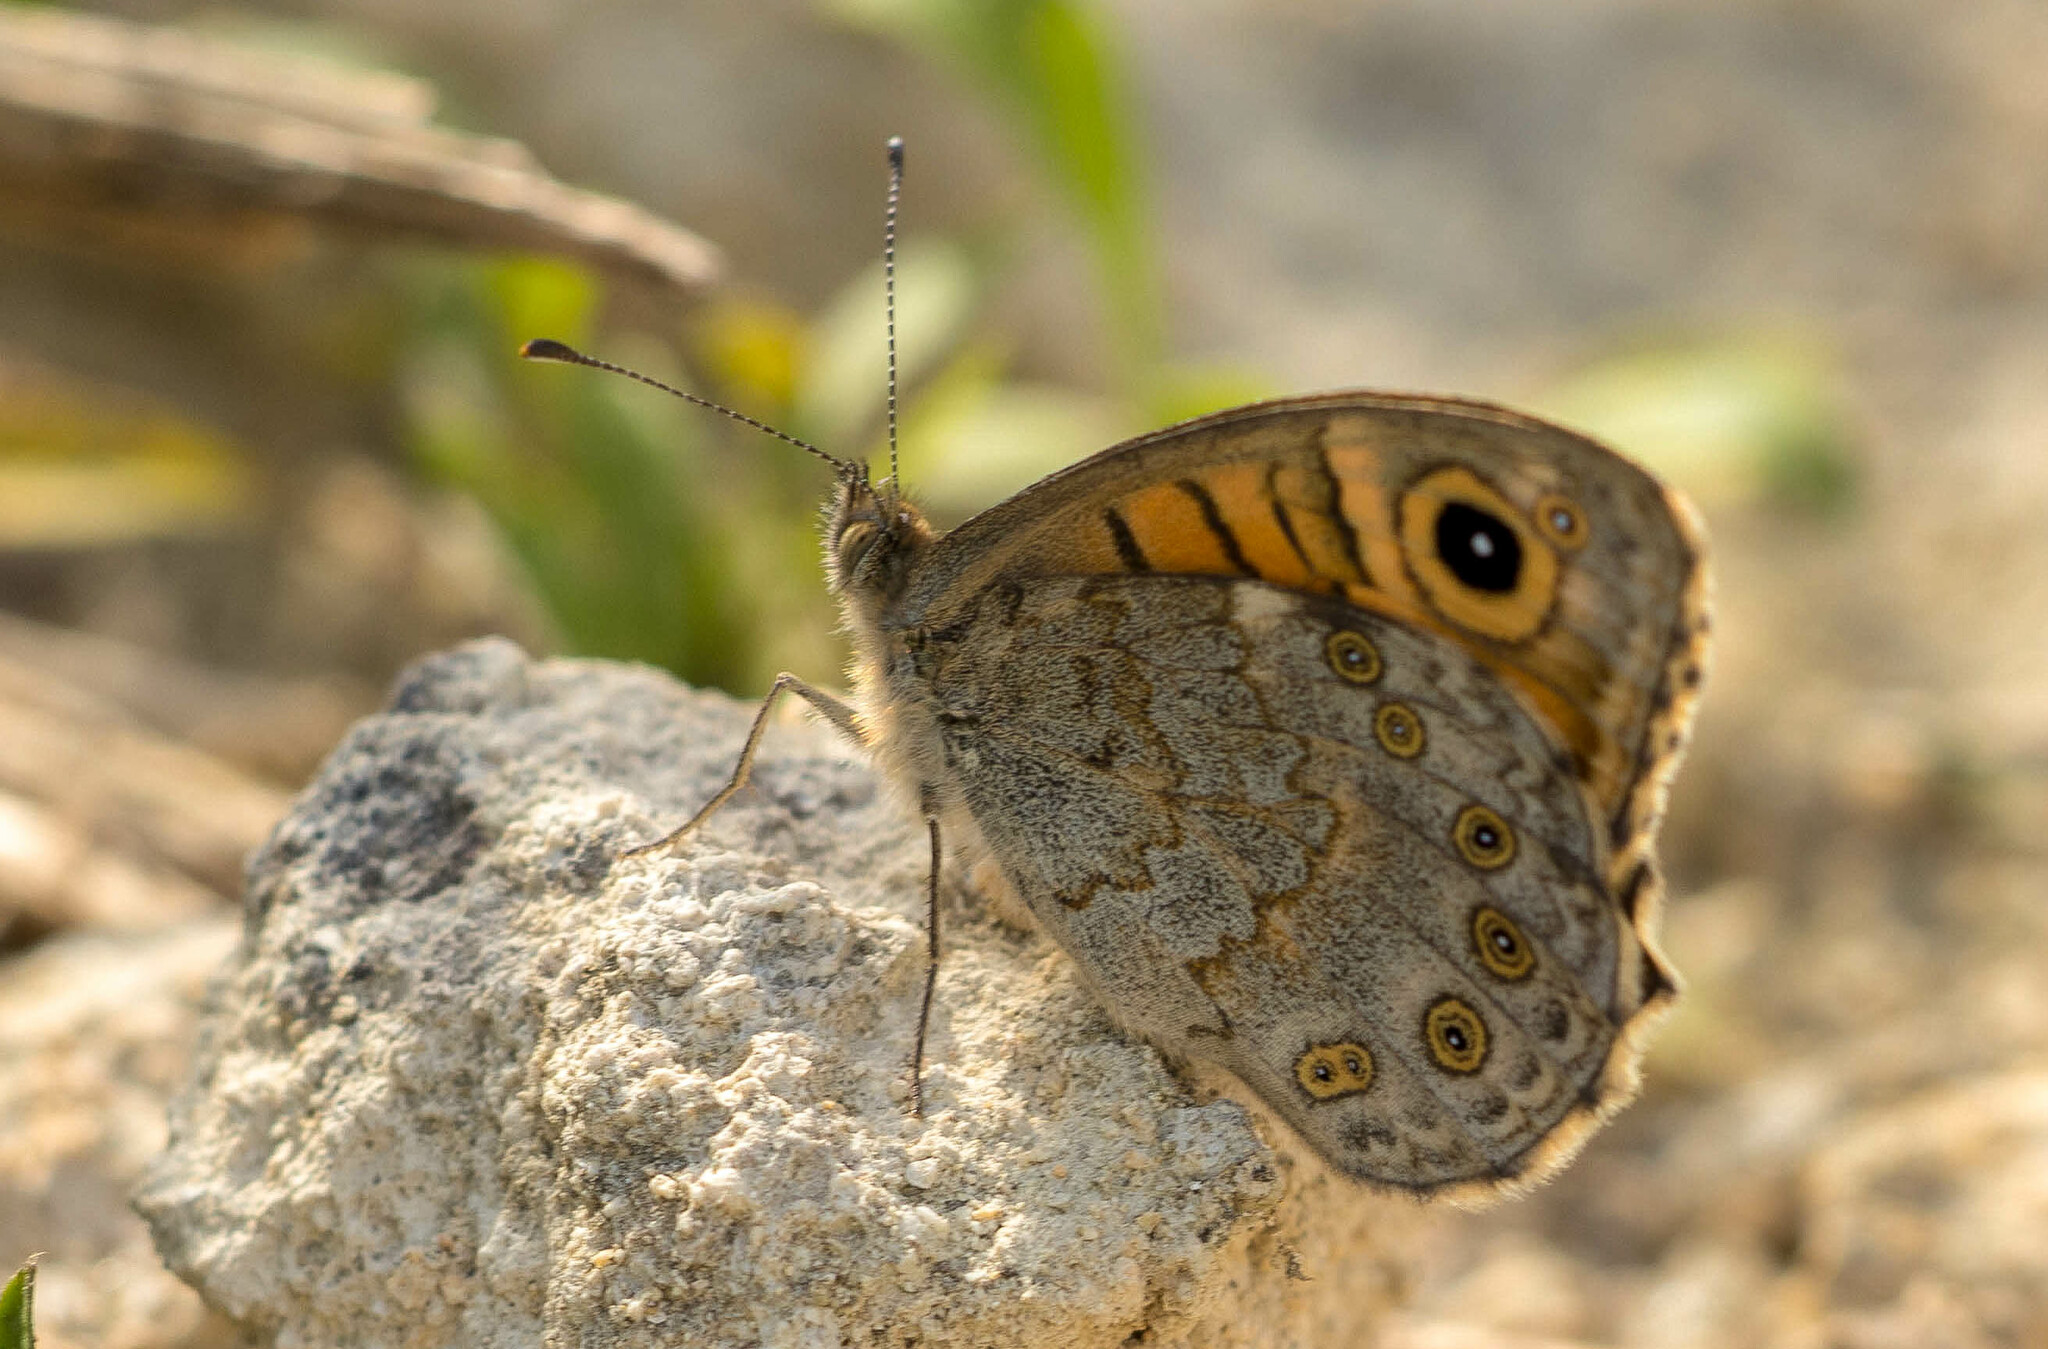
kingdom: Animalia
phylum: Arthropoda
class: Insecta
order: Lepidoptera
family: Nymphalidae
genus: Pararge
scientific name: Pararge Lasiommata megera
